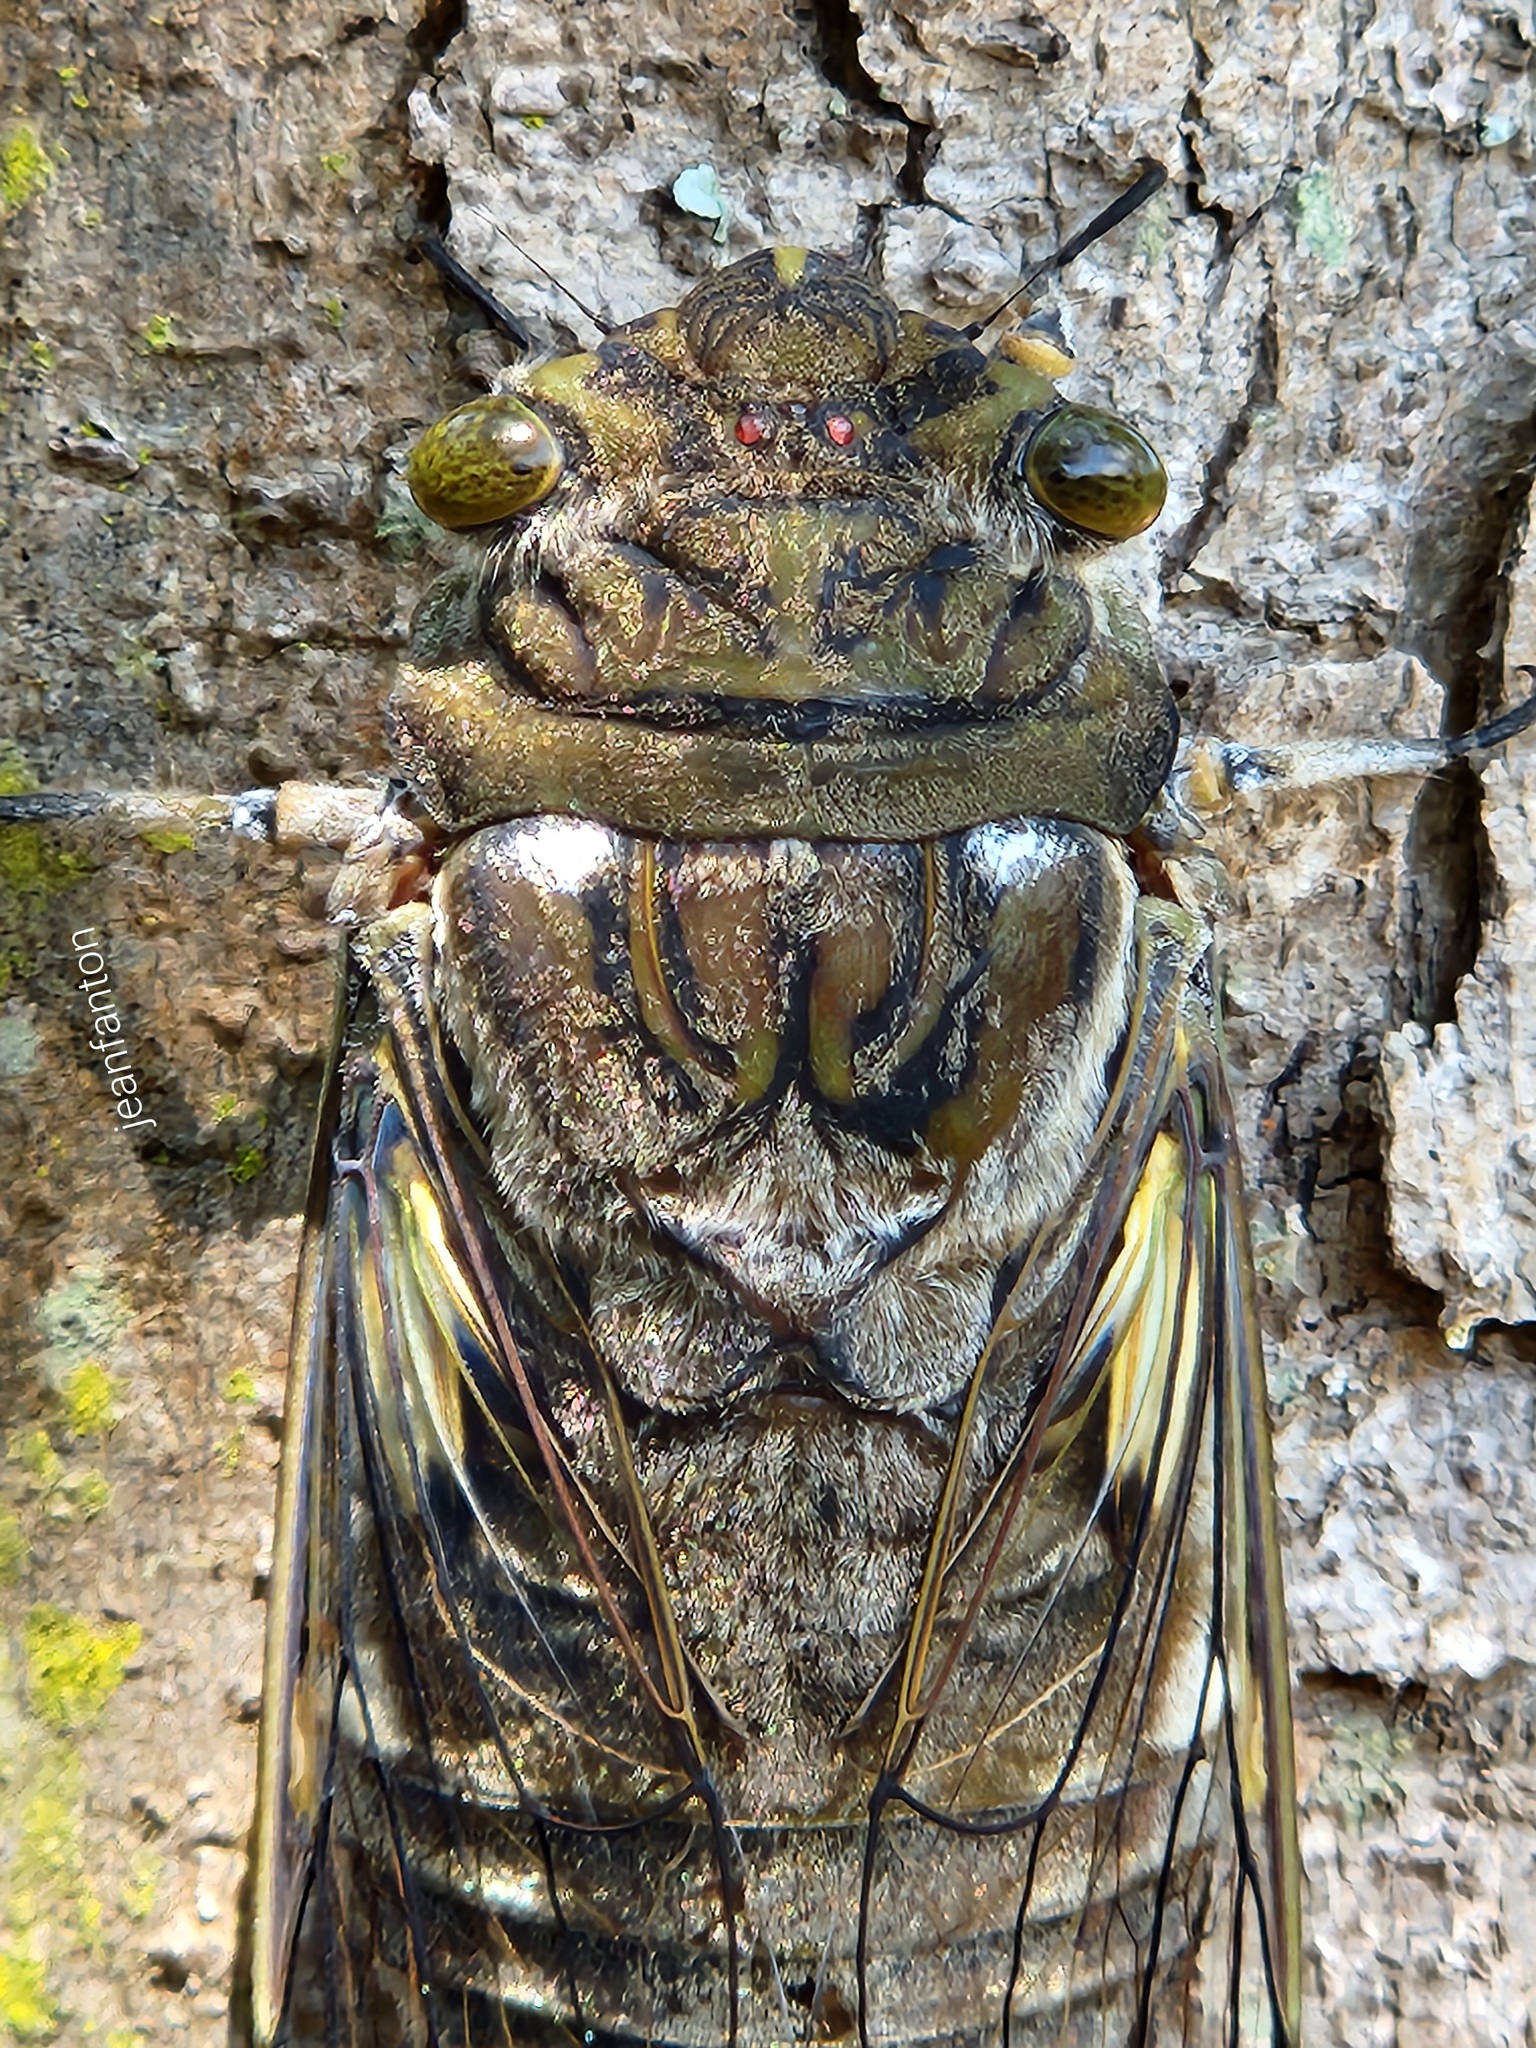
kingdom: Animalia
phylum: Arthropoda
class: Insecta
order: Hemiptera
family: Cicadidae
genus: Quesada
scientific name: Quesada gigas
